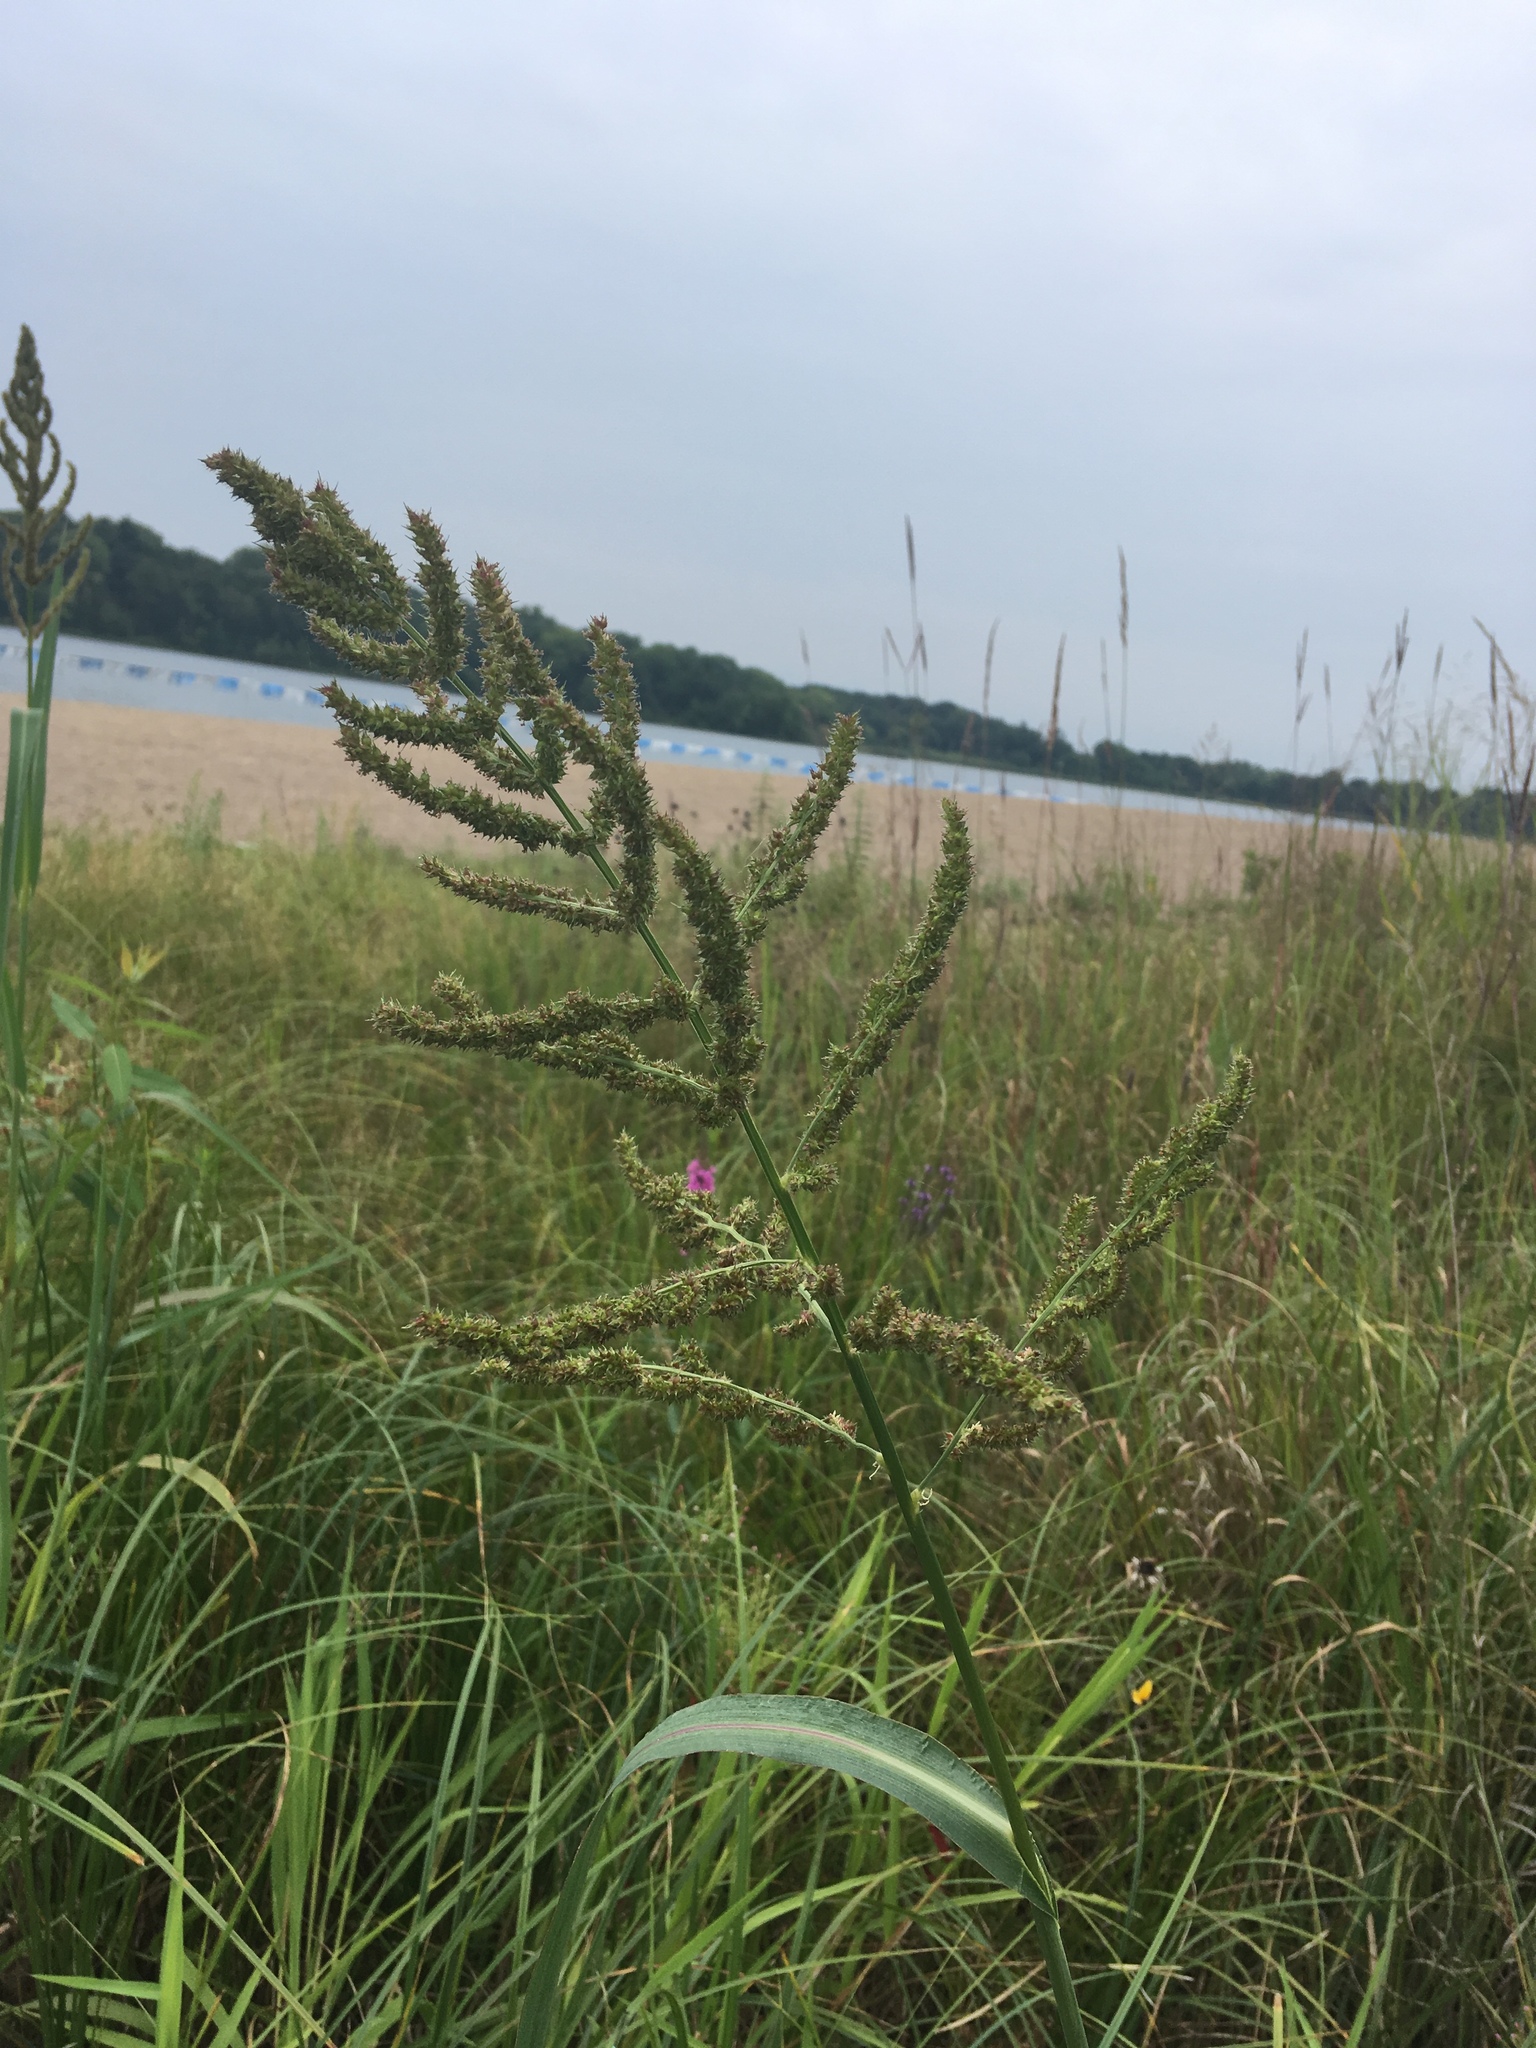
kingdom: Plantae
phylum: Tracheophyta
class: Liliopsida
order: Poales
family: Poaceae
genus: Echinochloa
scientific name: Echinochloa crus-galli
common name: Cockspur
